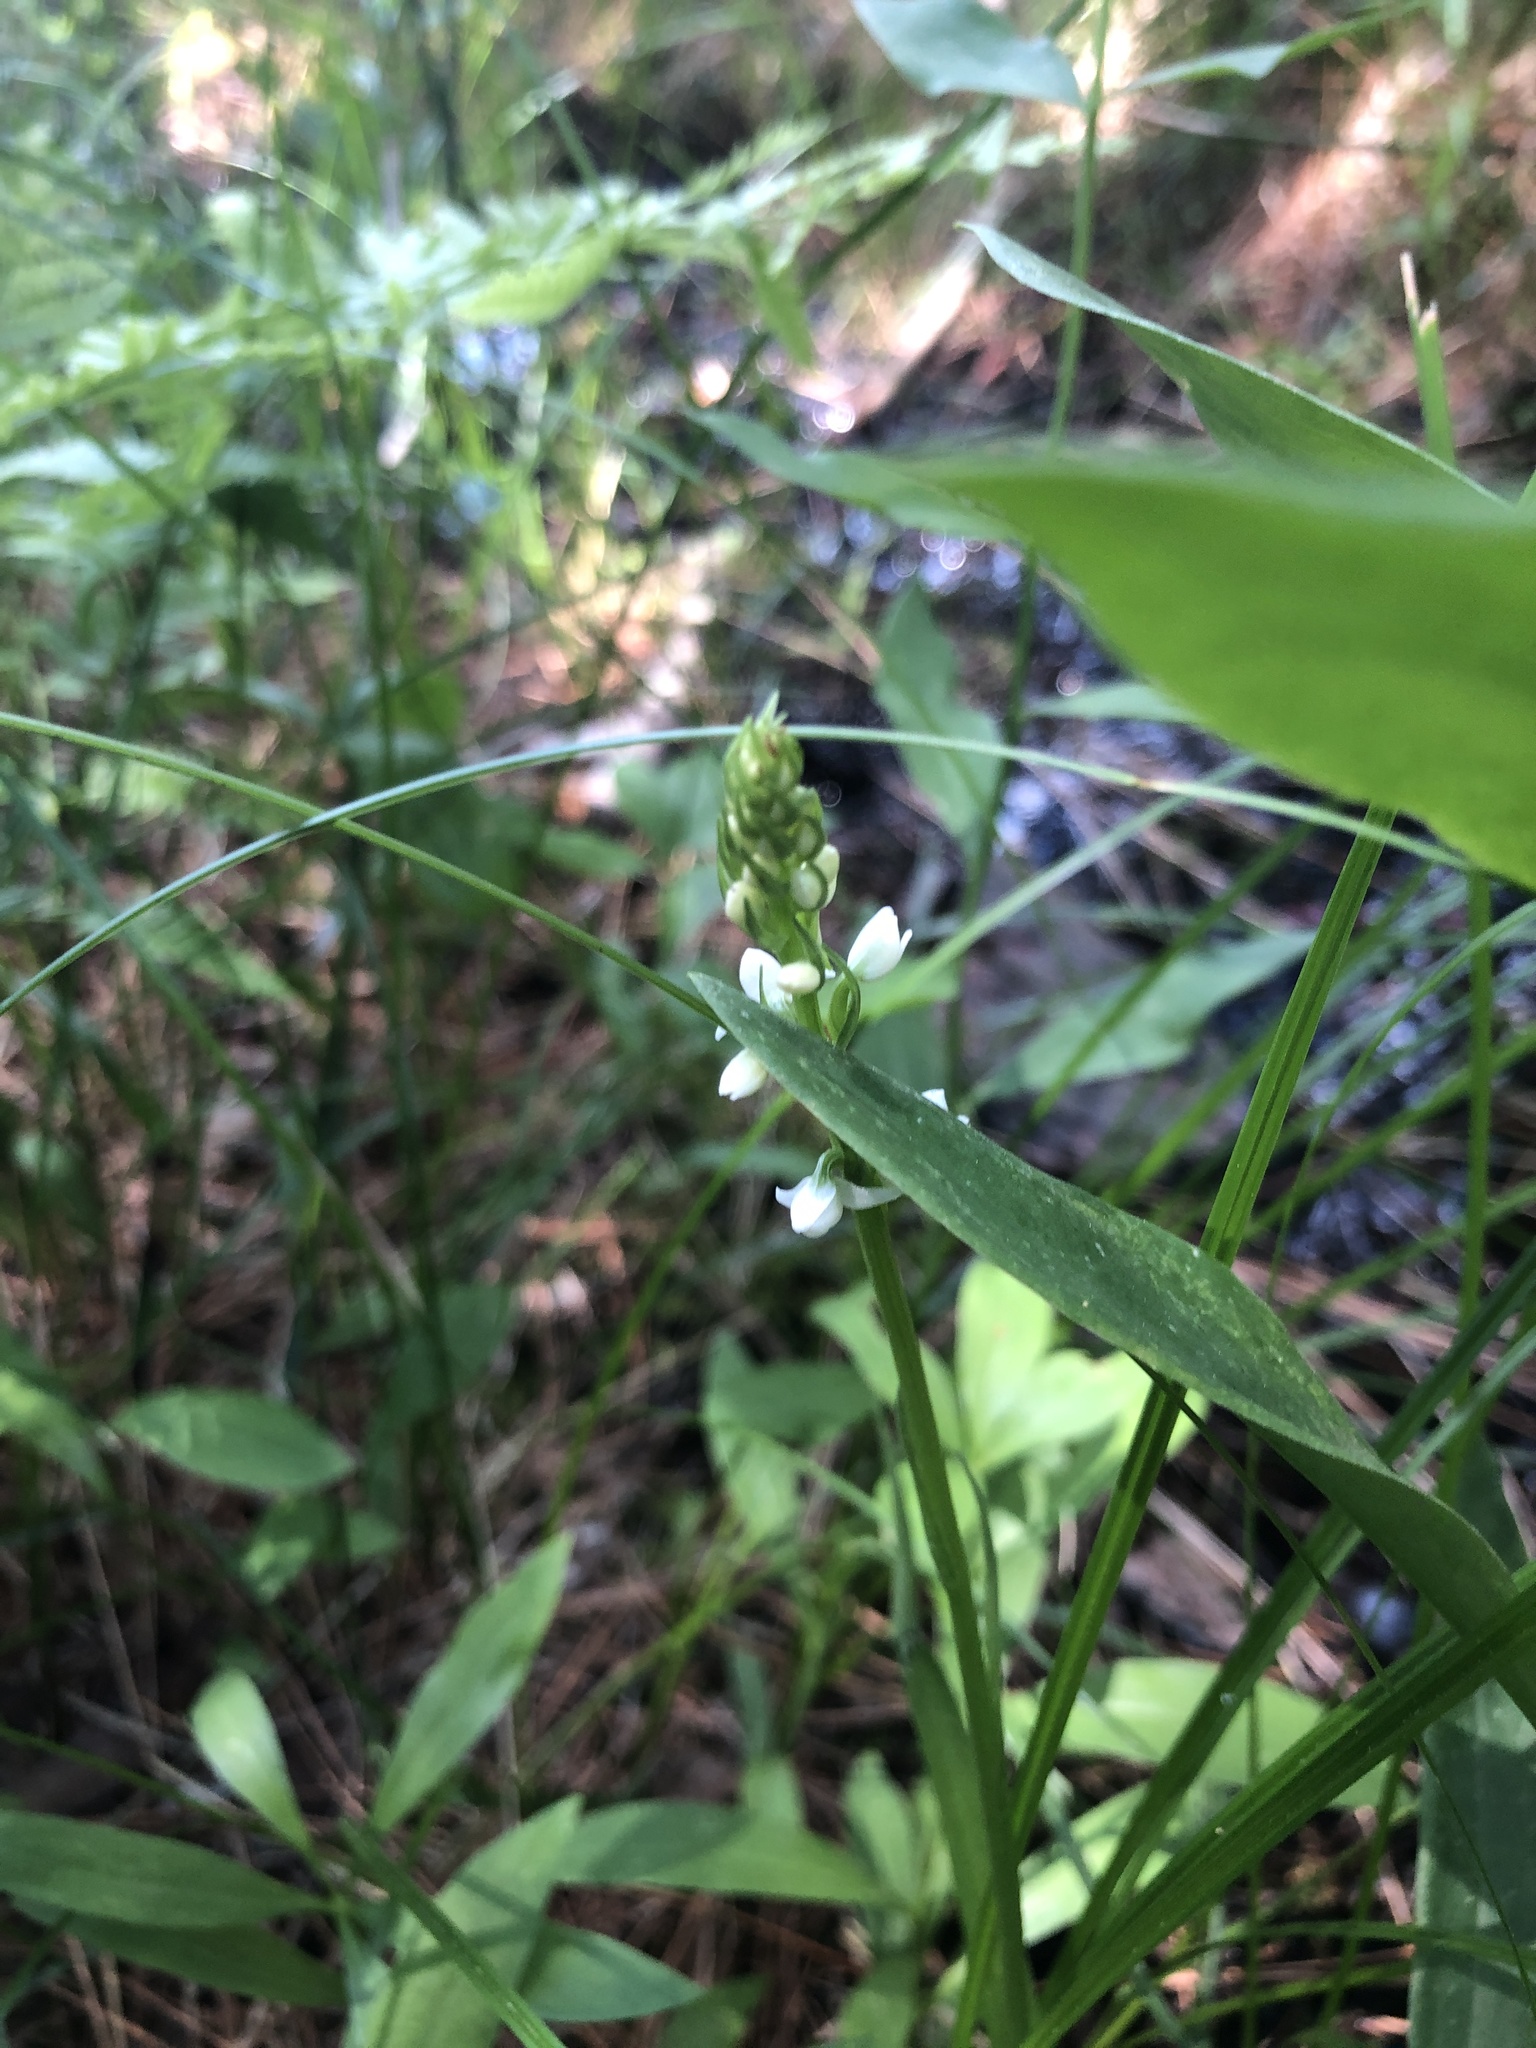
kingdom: Plantae
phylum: Tracheophyta
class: Liliopsida
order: Asparagales
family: Orchidaceae
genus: Platanthera
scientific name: Platanthera dilatata
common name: Bog candles
